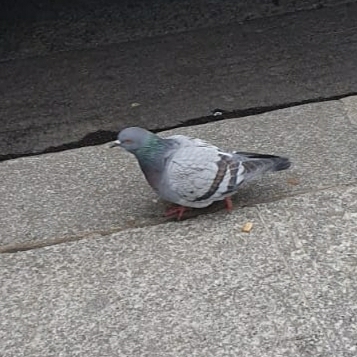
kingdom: Animalia
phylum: Chordata
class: Aves
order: Columbiformes
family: Columbidae
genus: Columba
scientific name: Columba livia
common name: Rock pigeon
